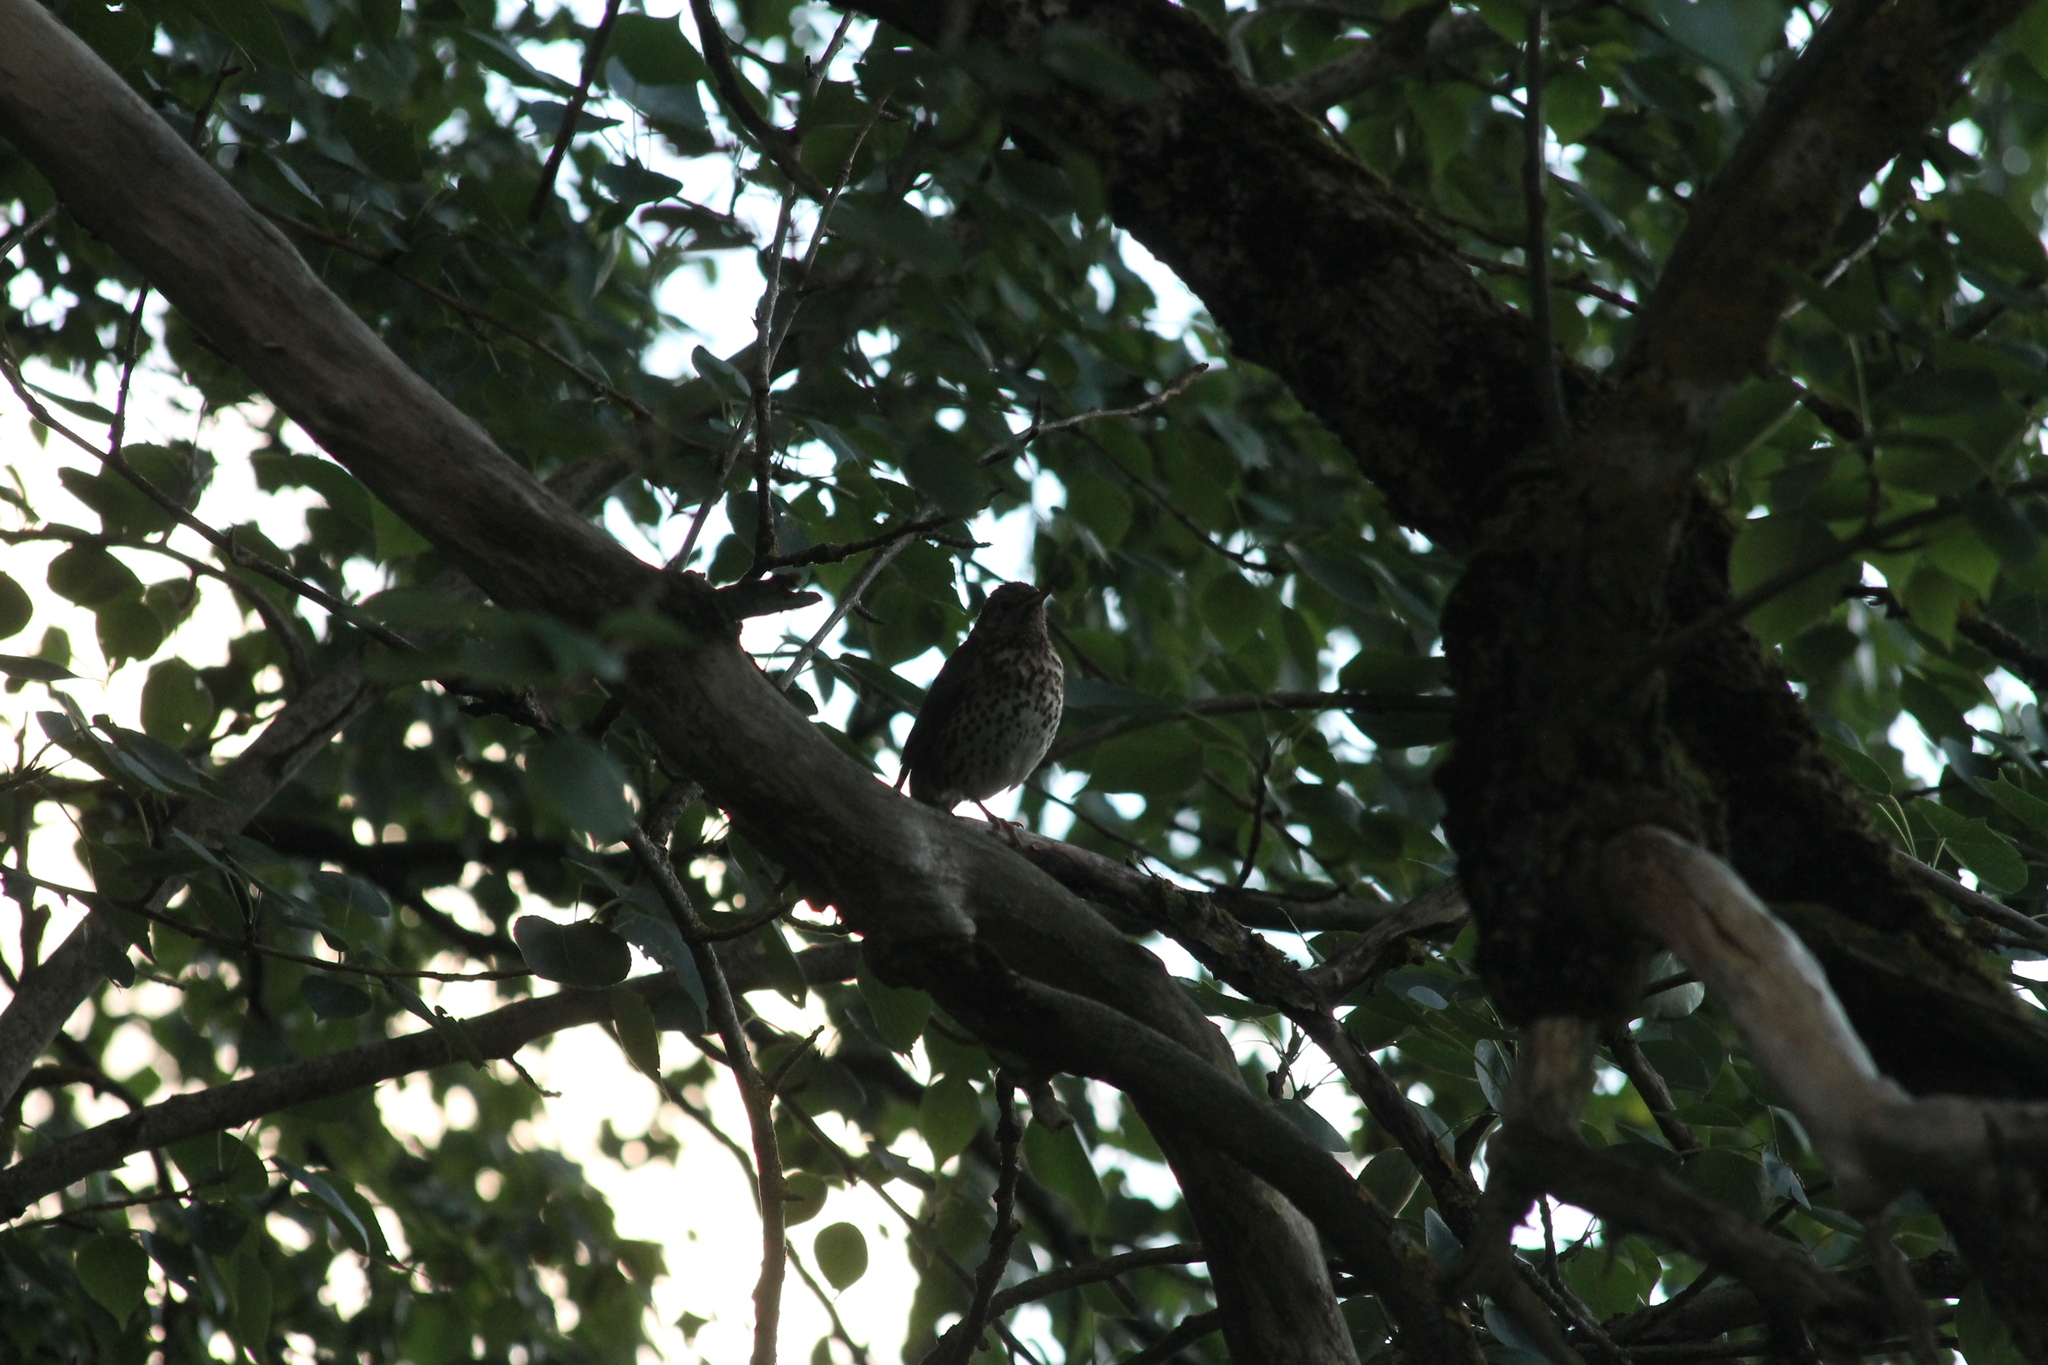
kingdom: Animalia
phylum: Chordata
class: Aves
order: Passeriformes
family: Turdidae
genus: Turdus
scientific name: Turdus philomelos
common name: Song thrush
